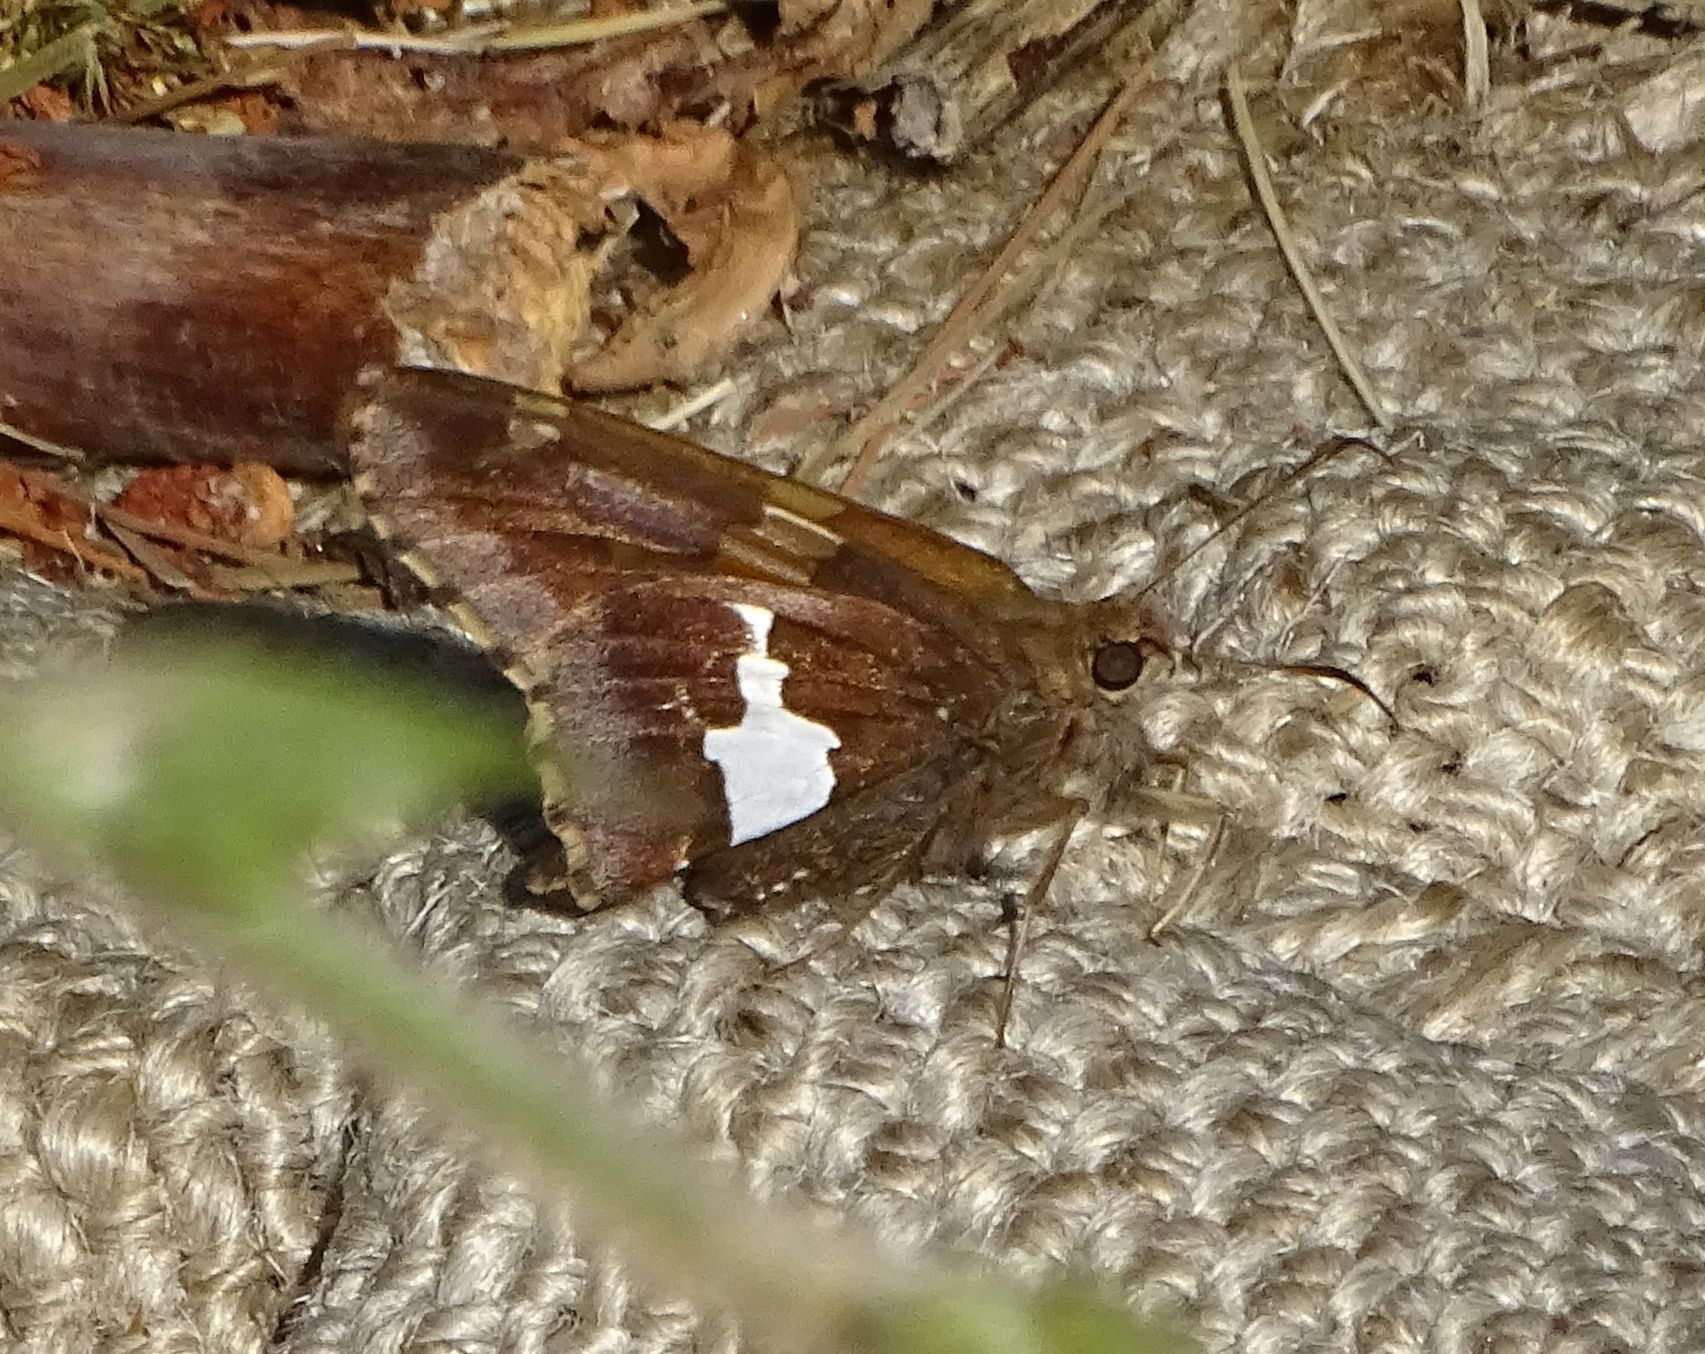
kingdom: Animalia
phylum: Arthropoda
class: Insecta
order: Lepidoptera
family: Hesperiidae
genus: Epargyreus
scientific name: Epargyreus clarus
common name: Silver-spotted skipper
